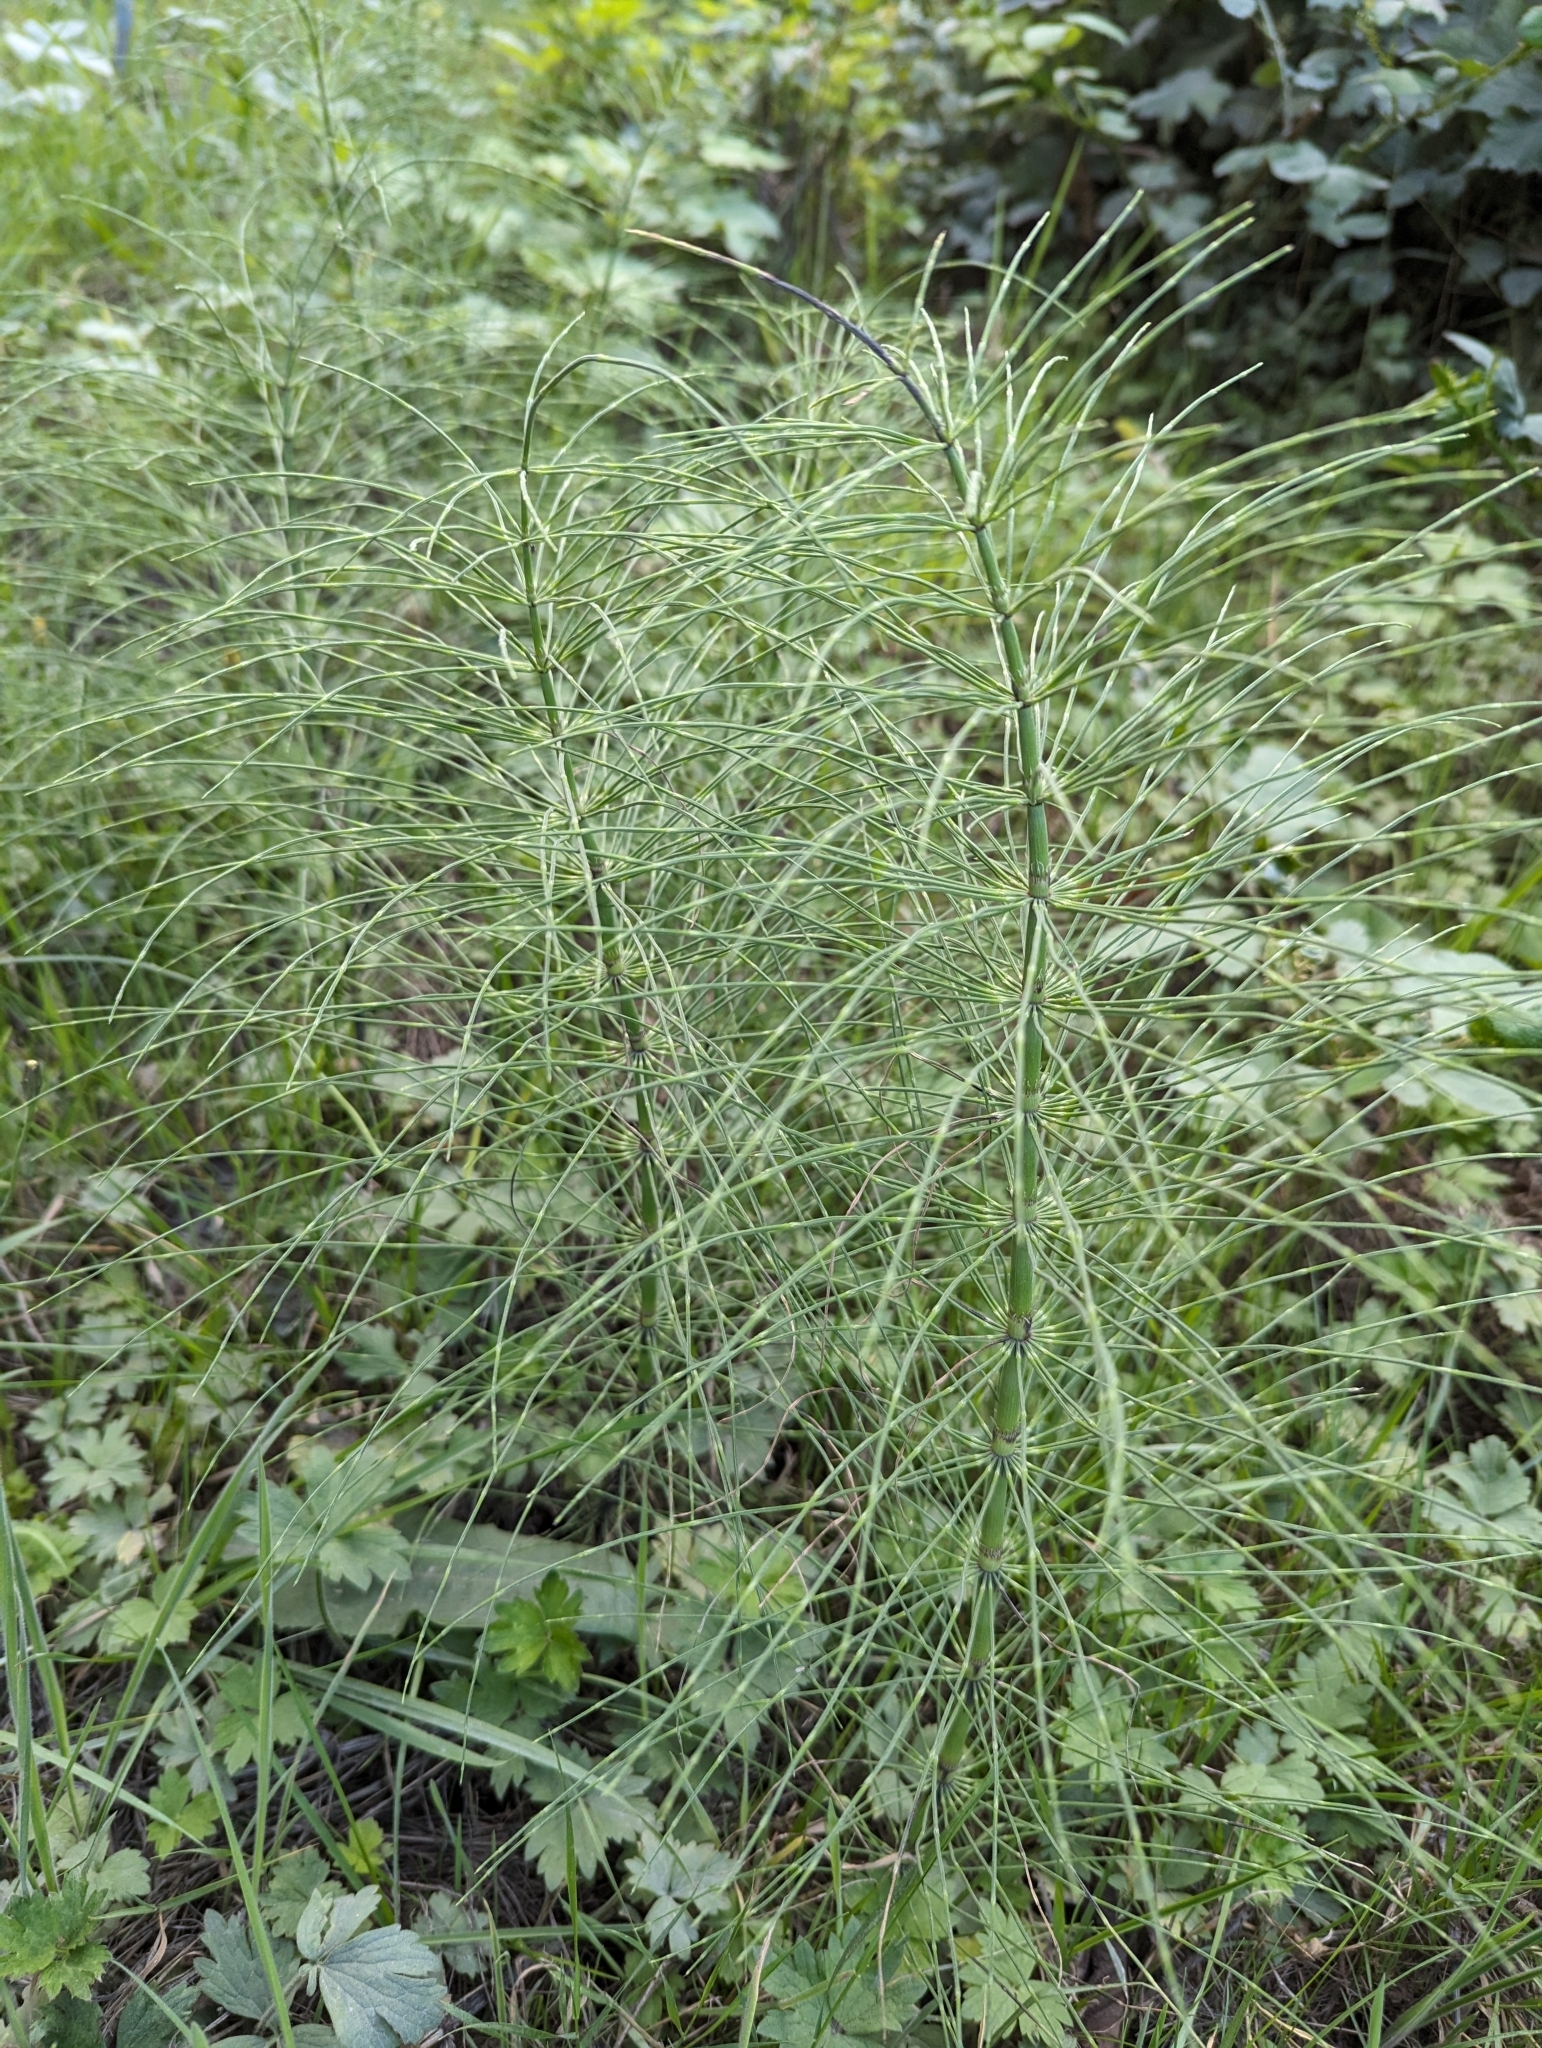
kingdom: Plantae
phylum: Tracheophyta
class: Polypodiopsida
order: Equisetales
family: Equisetaceae
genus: Equisetum
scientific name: Equisetum braunii
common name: Braun's horsetail
